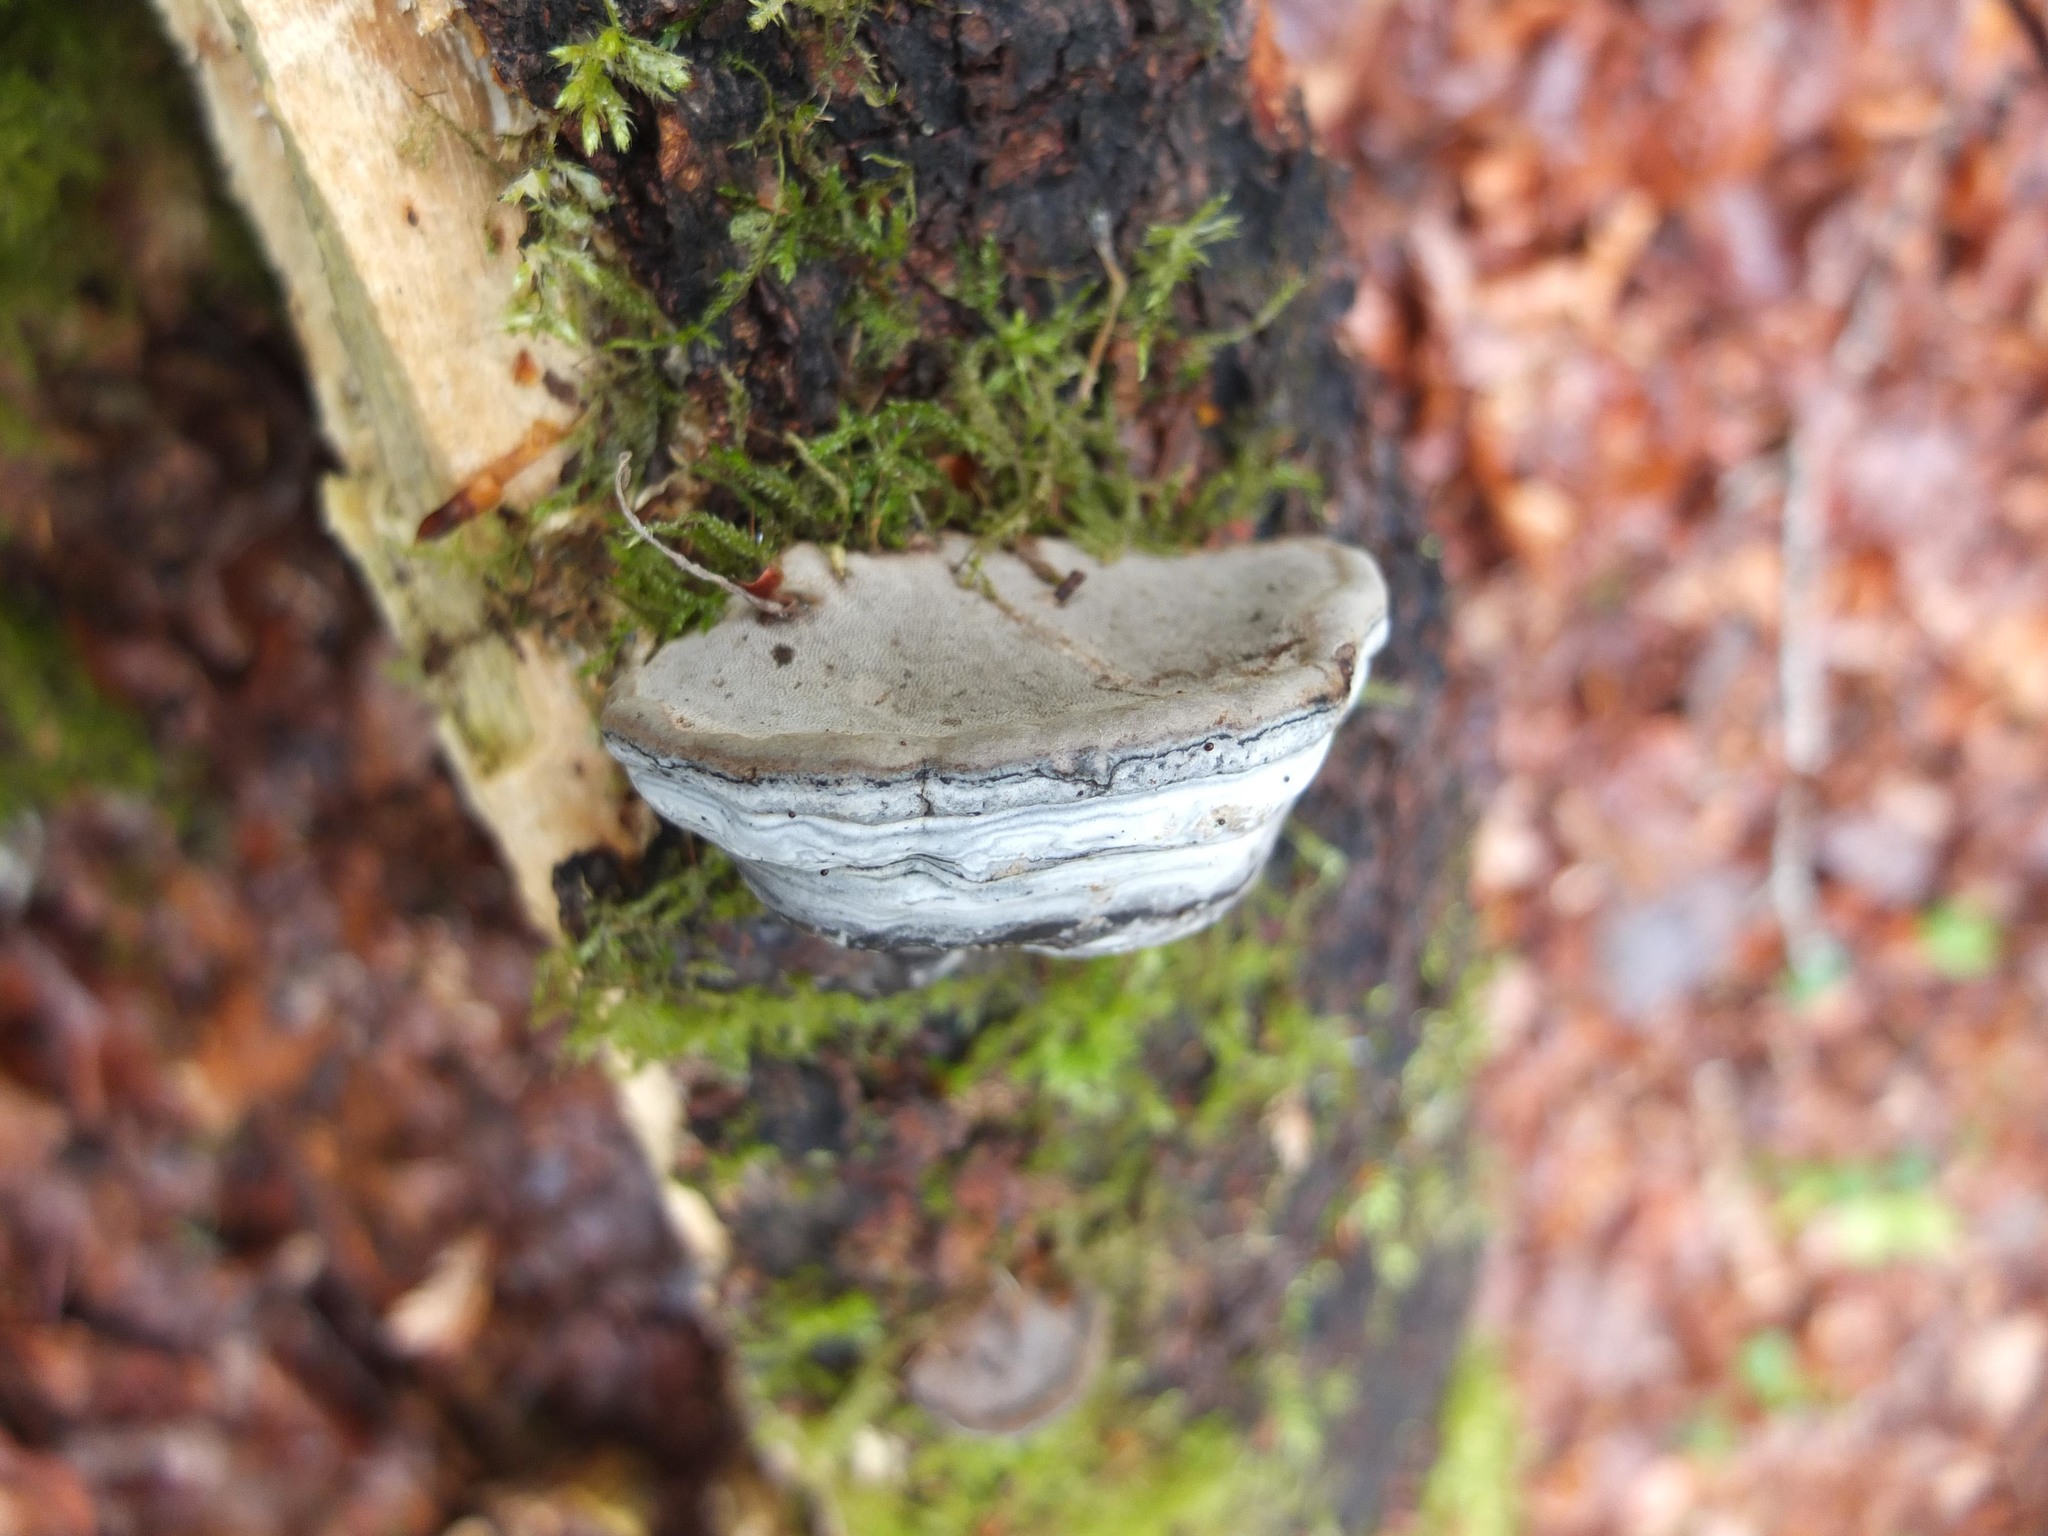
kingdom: Fungi
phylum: Basidiomycota
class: Agaricomycetes
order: Polyporales
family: Polyporaceae
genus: Fomes
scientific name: Fomes fomentarius
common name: Hoof fungus
